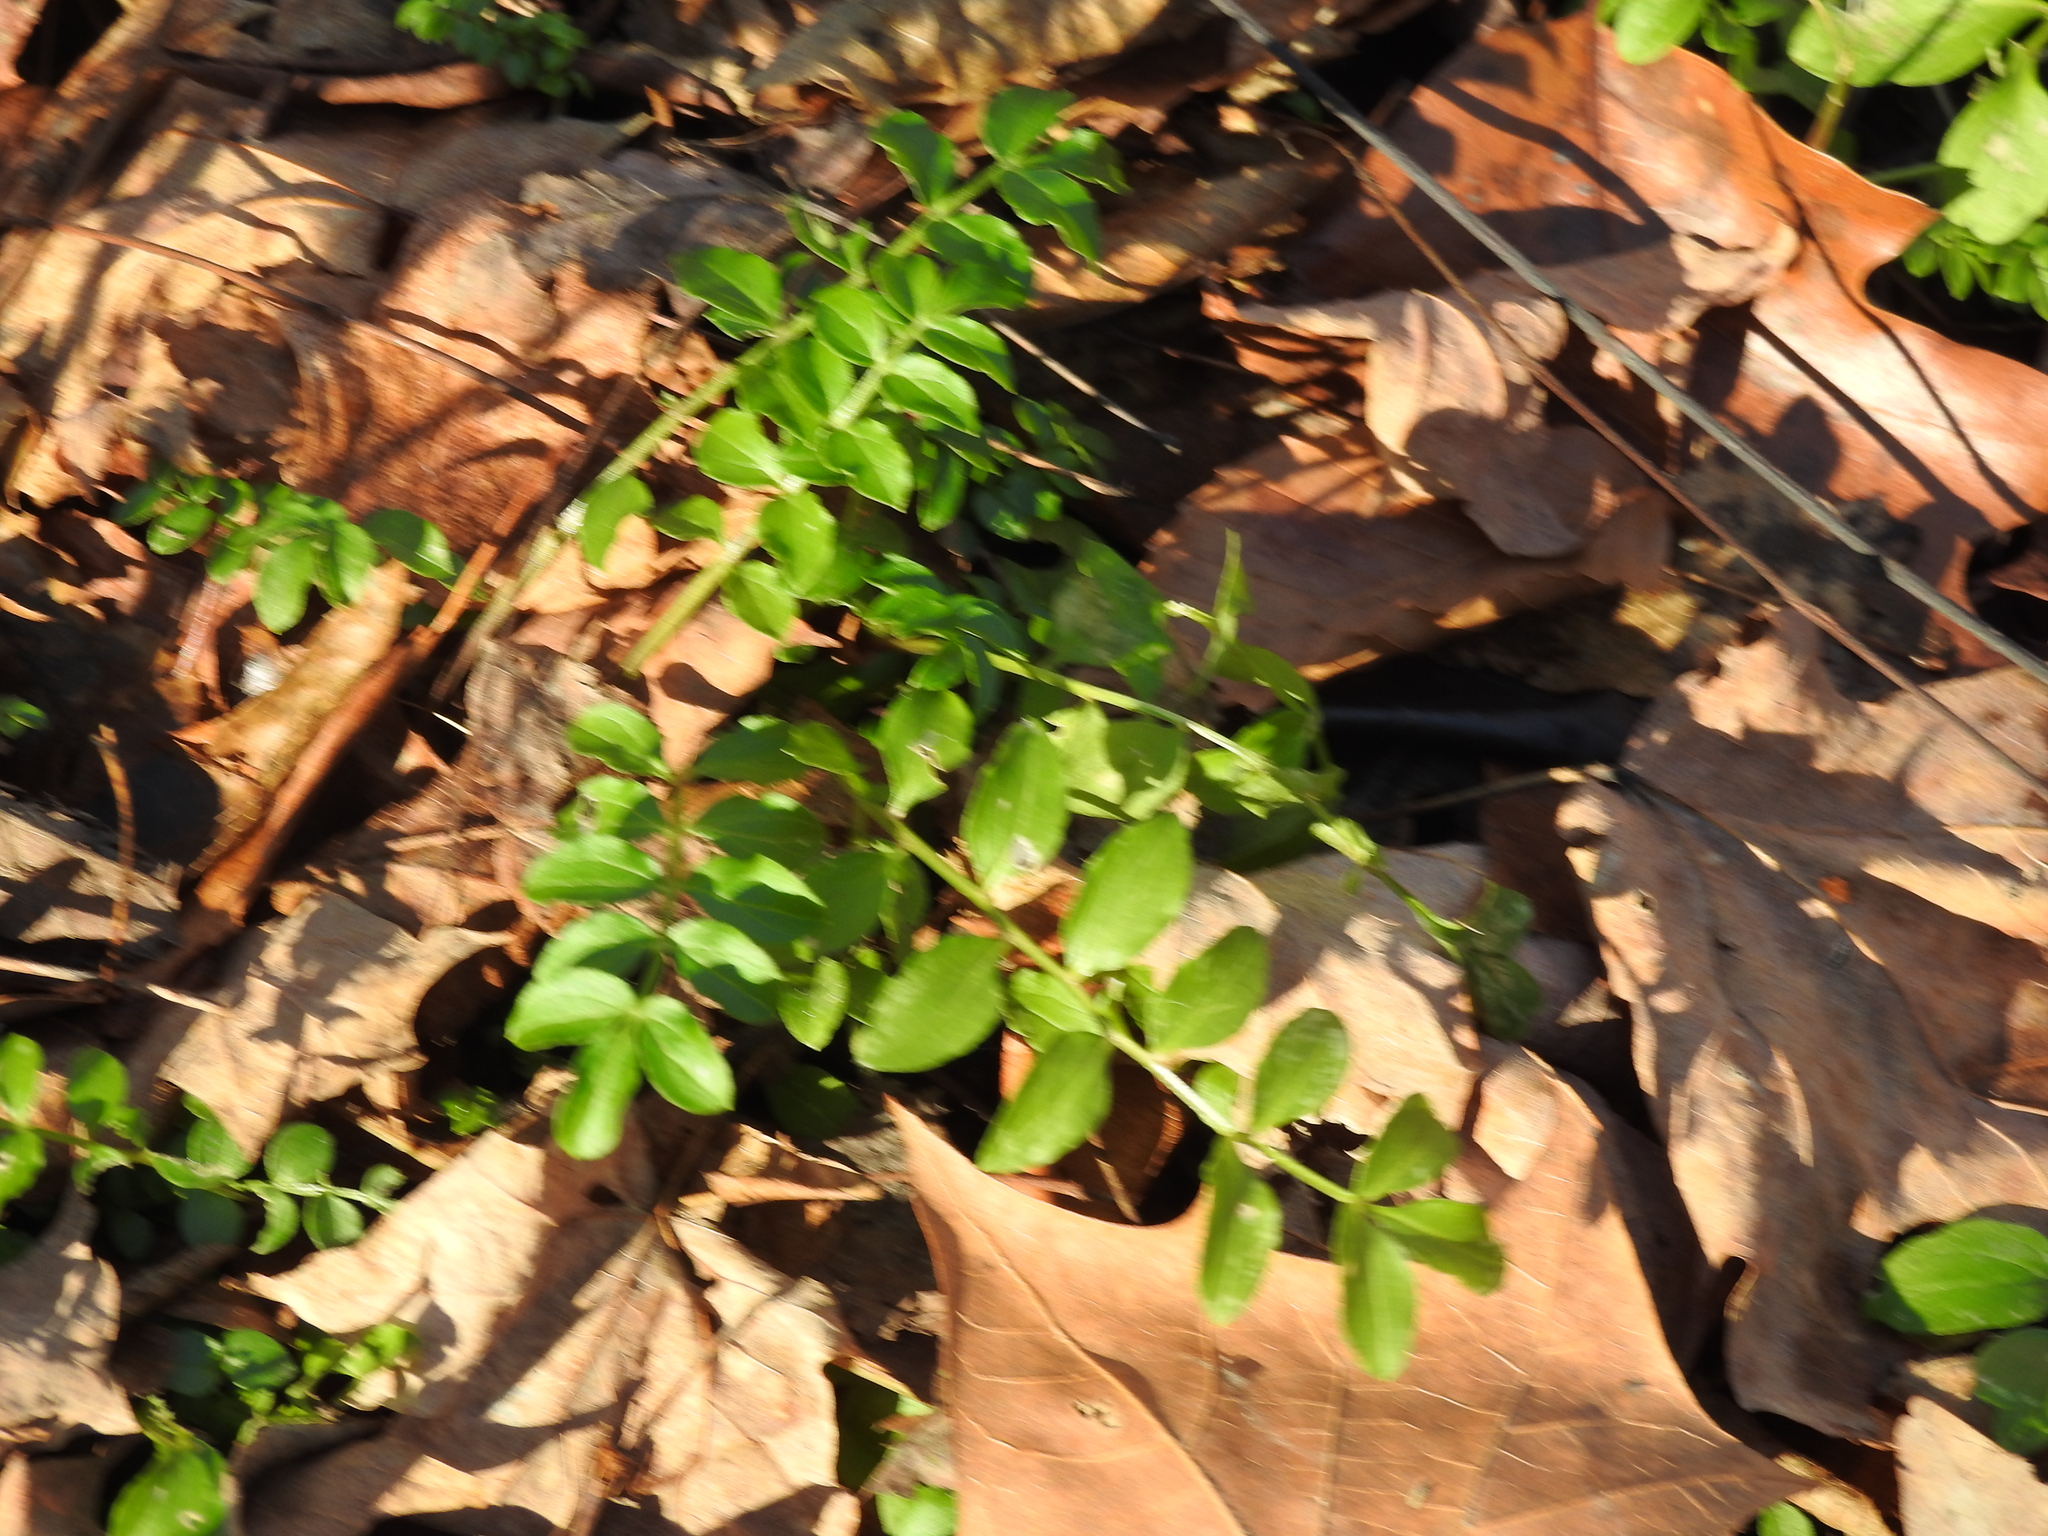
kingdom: Plantae
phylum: Tracheophyta
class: Magnoliopsida
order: Ericales
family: Polemoniaceae
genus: Polemonium
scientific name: Polemonium reptans
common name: Creeping jacob's-ladder
